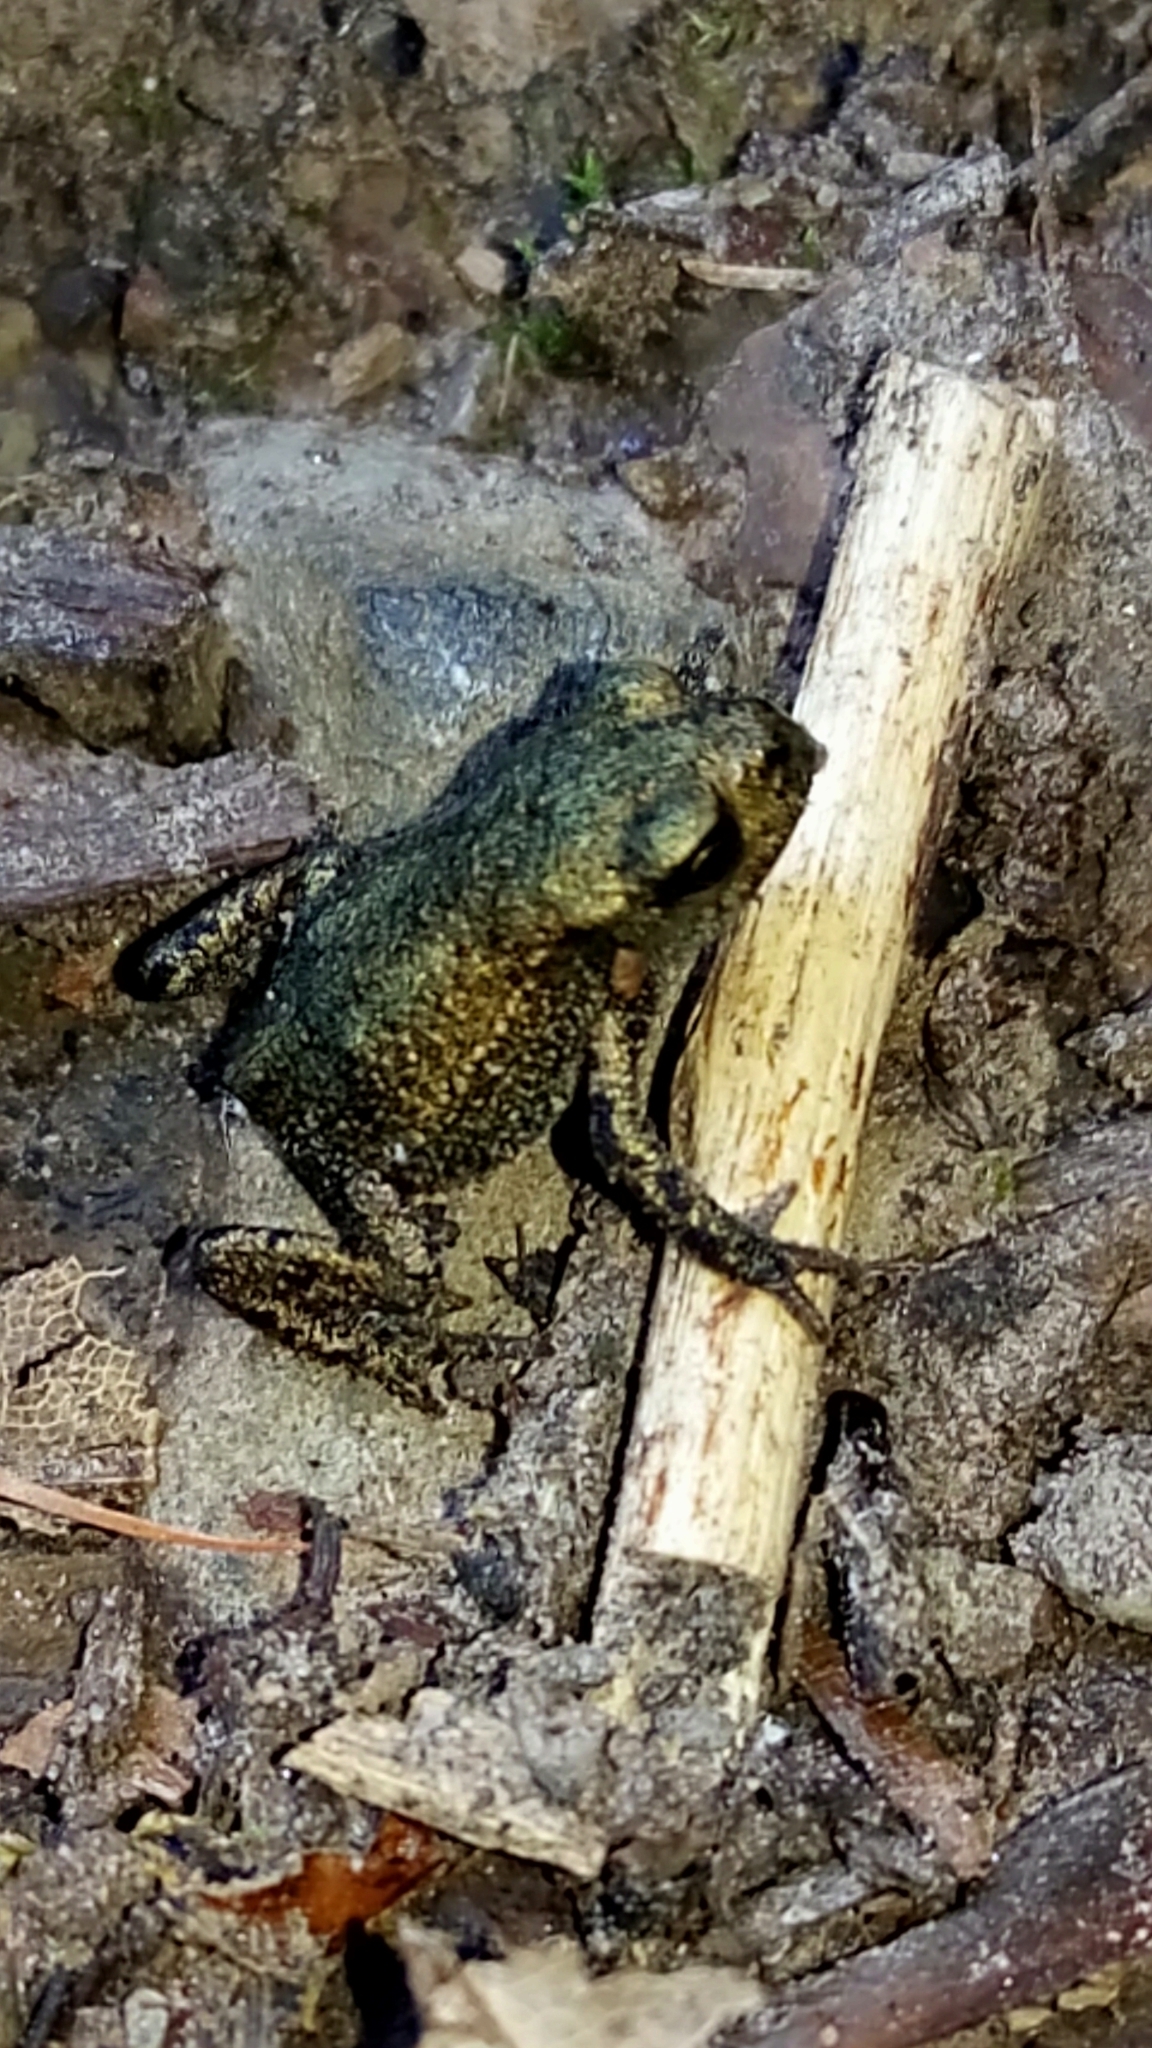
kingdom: Animalia
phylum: Chordata
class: Amphibia
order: Anura
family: Bufonidae
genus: Bufo
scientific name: Bufo bufo
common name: Common toad
